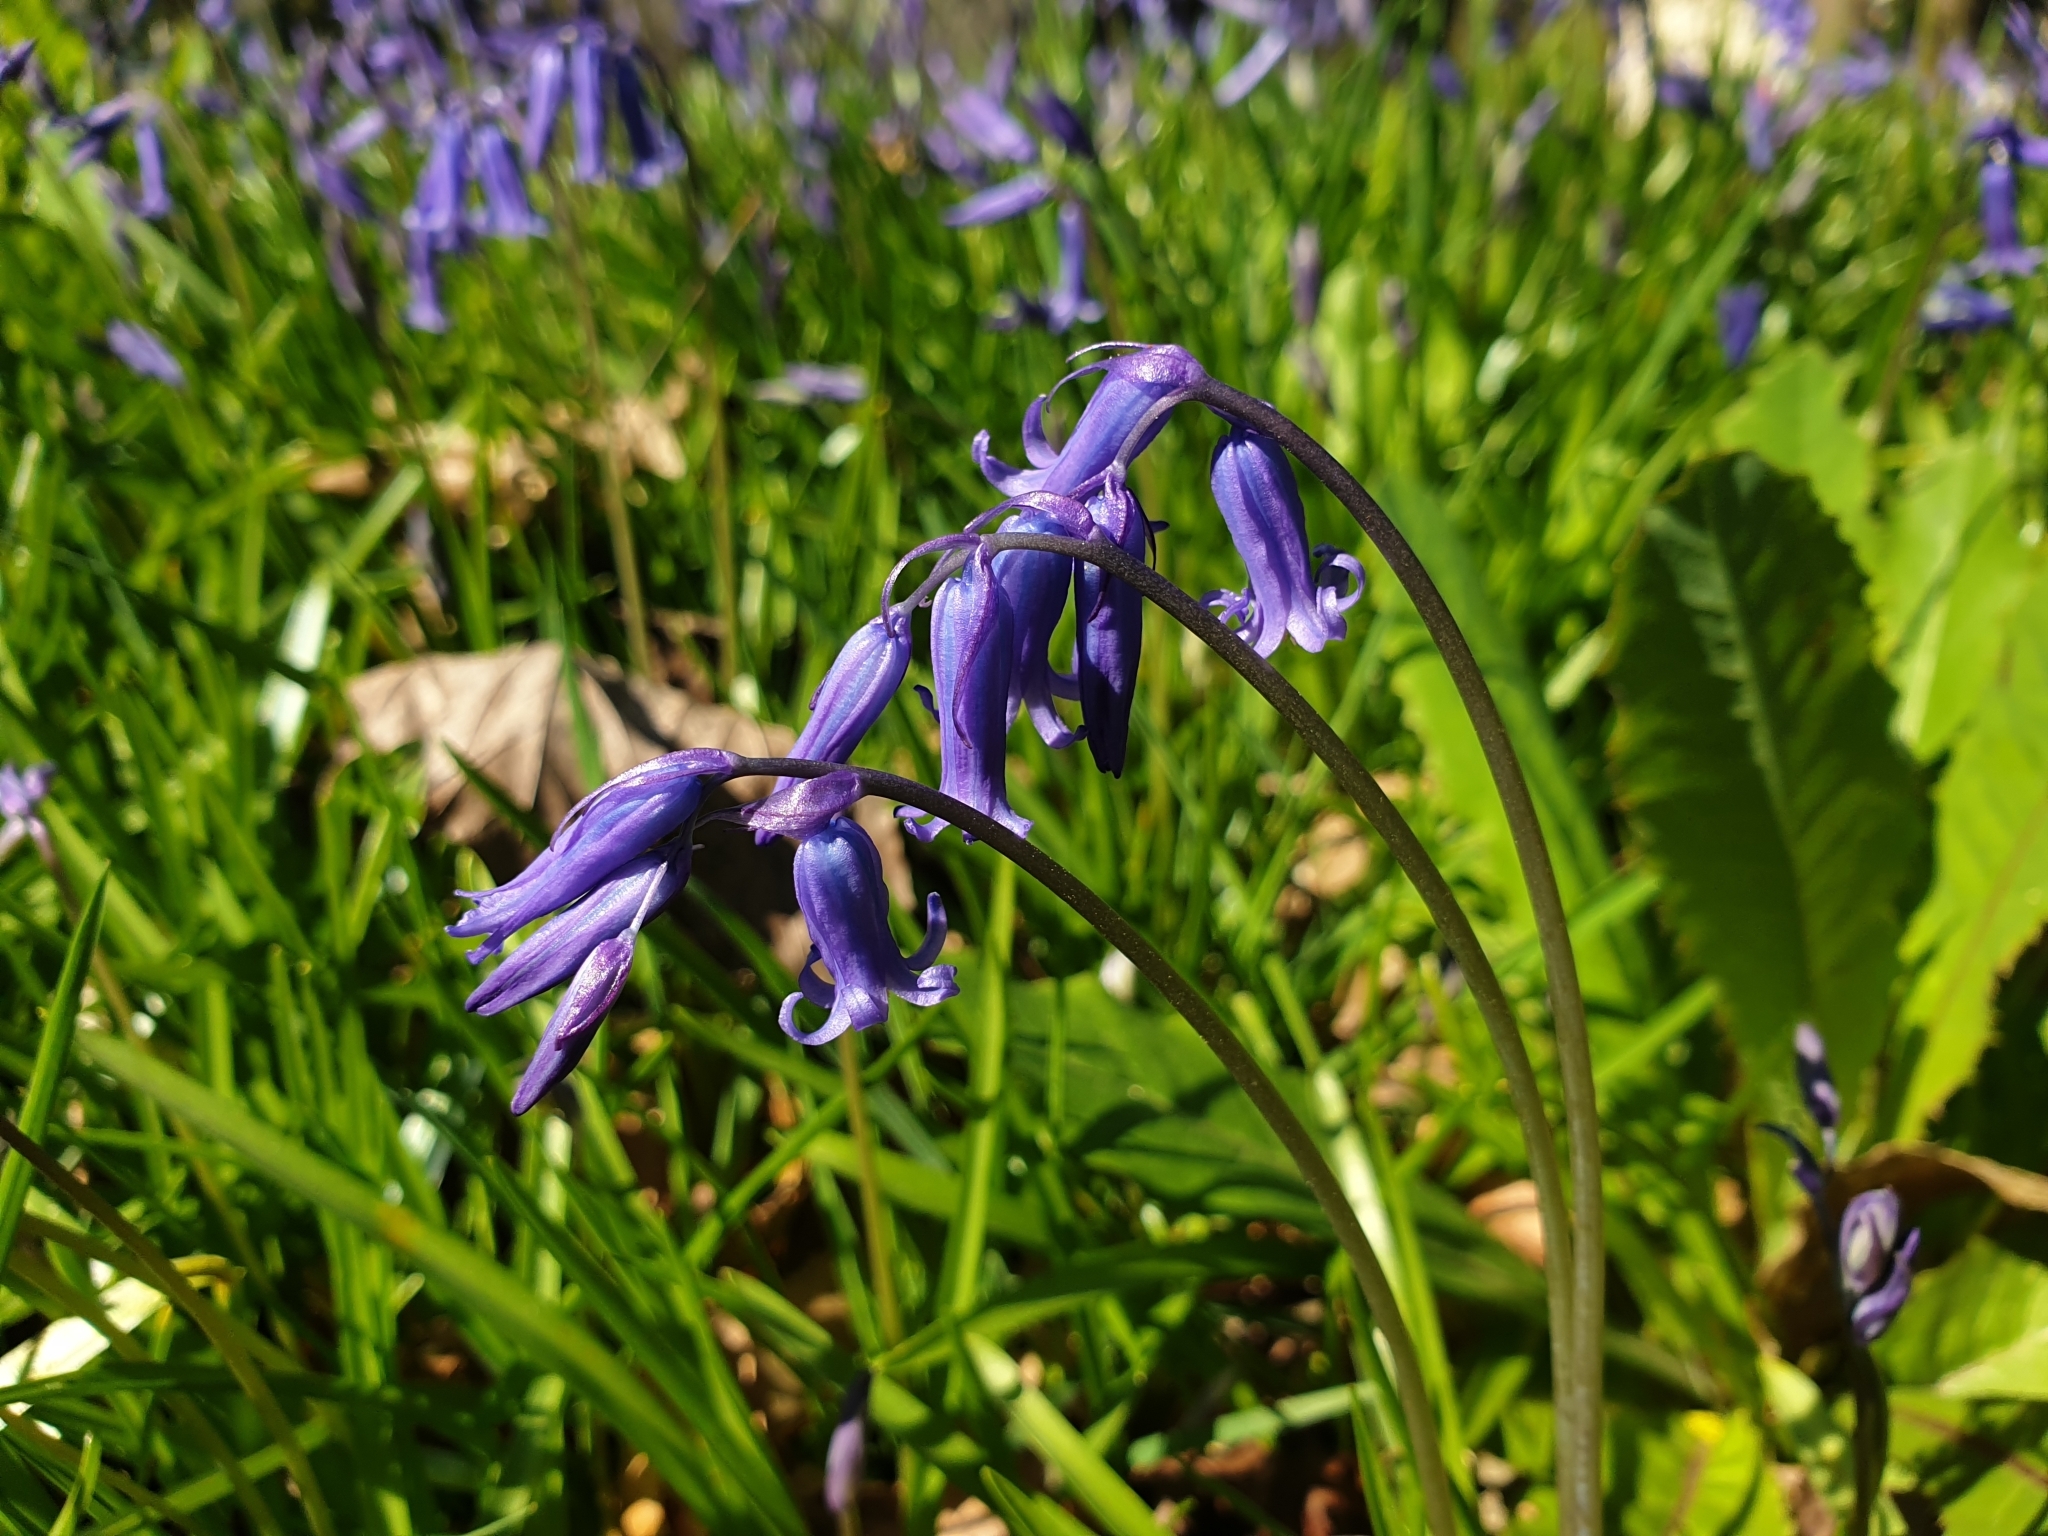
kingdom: Plantae
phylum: Tracheophyta
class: Liliopsida
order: Asparagales
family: Asparagaceae
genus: Hyacinthoides
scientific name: Hyacinthoides non-scripta
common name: Bluebell
